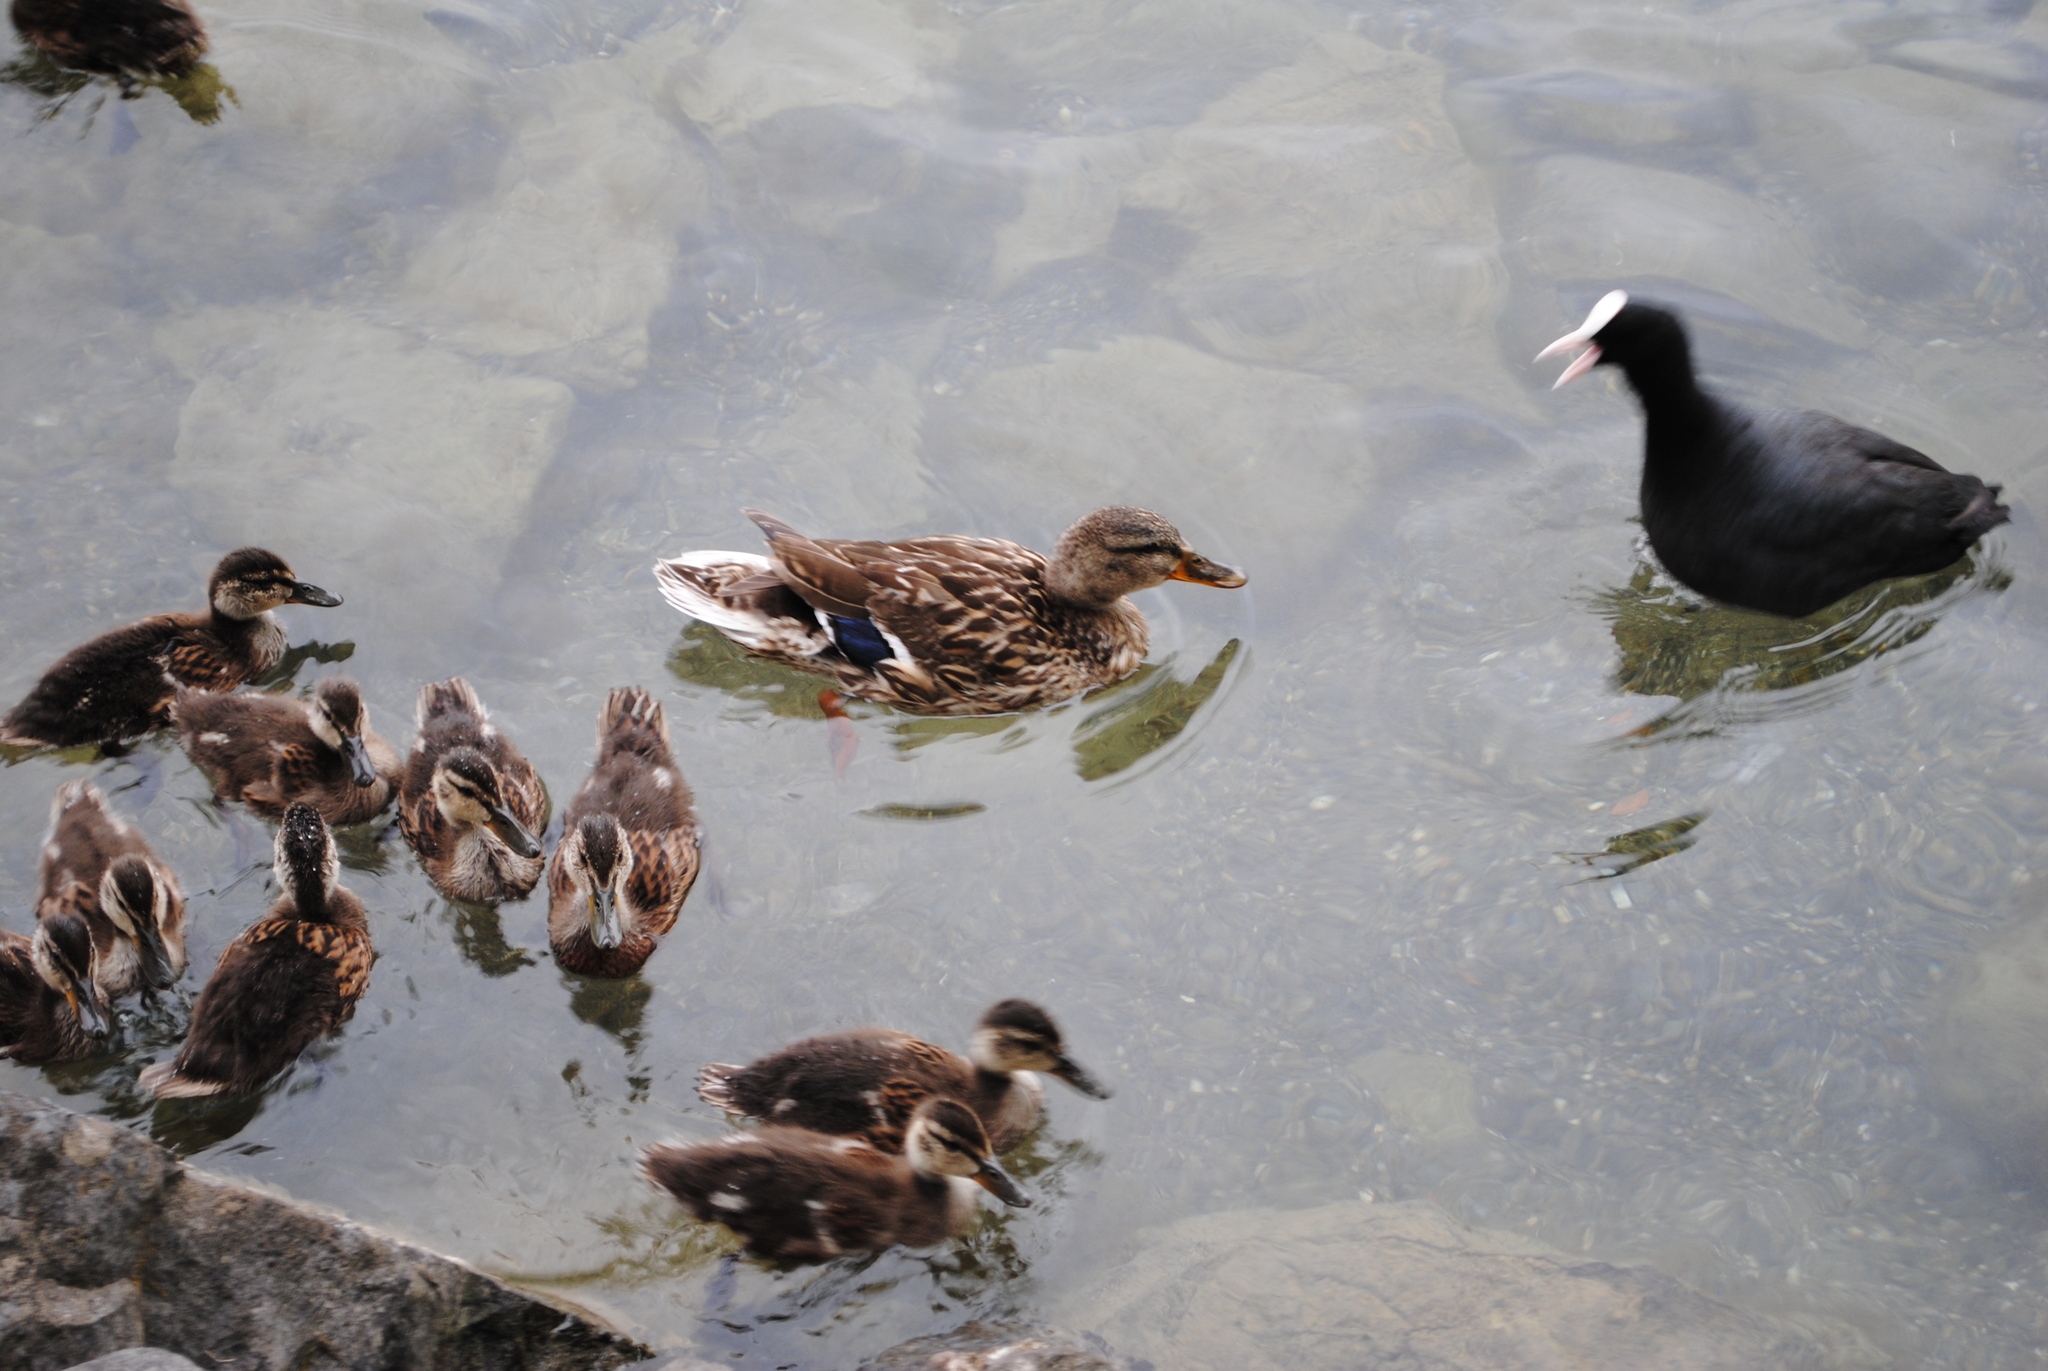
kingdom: Animalia
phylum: Chordata
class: Aves
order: Gruiformes
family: Rallidae
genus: Fulica
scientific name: Fulica atra
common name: Eurasian coot
